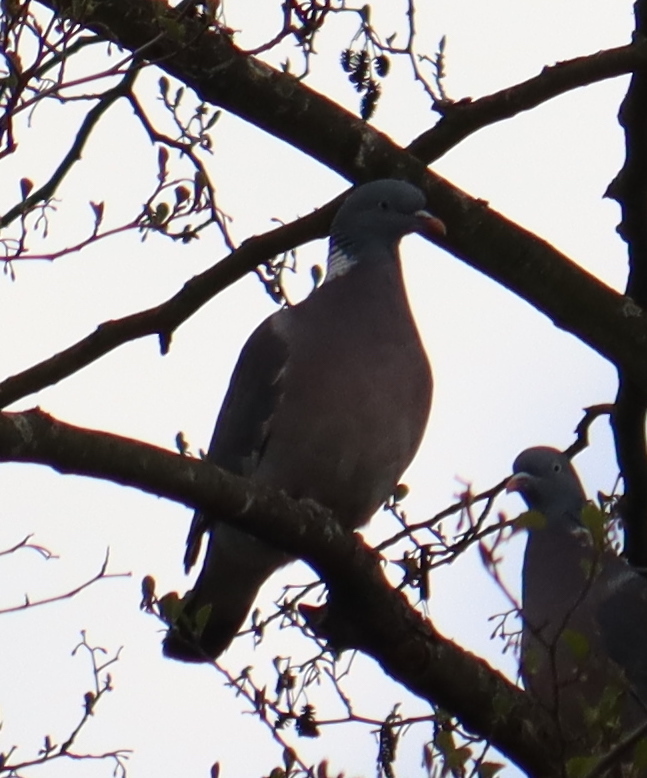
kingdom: Animalia
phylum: Chordata
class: Aves
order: Columbiformes
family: Columbidae
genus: Columba
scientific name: Columba palumbus
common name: Common wood pigeon
